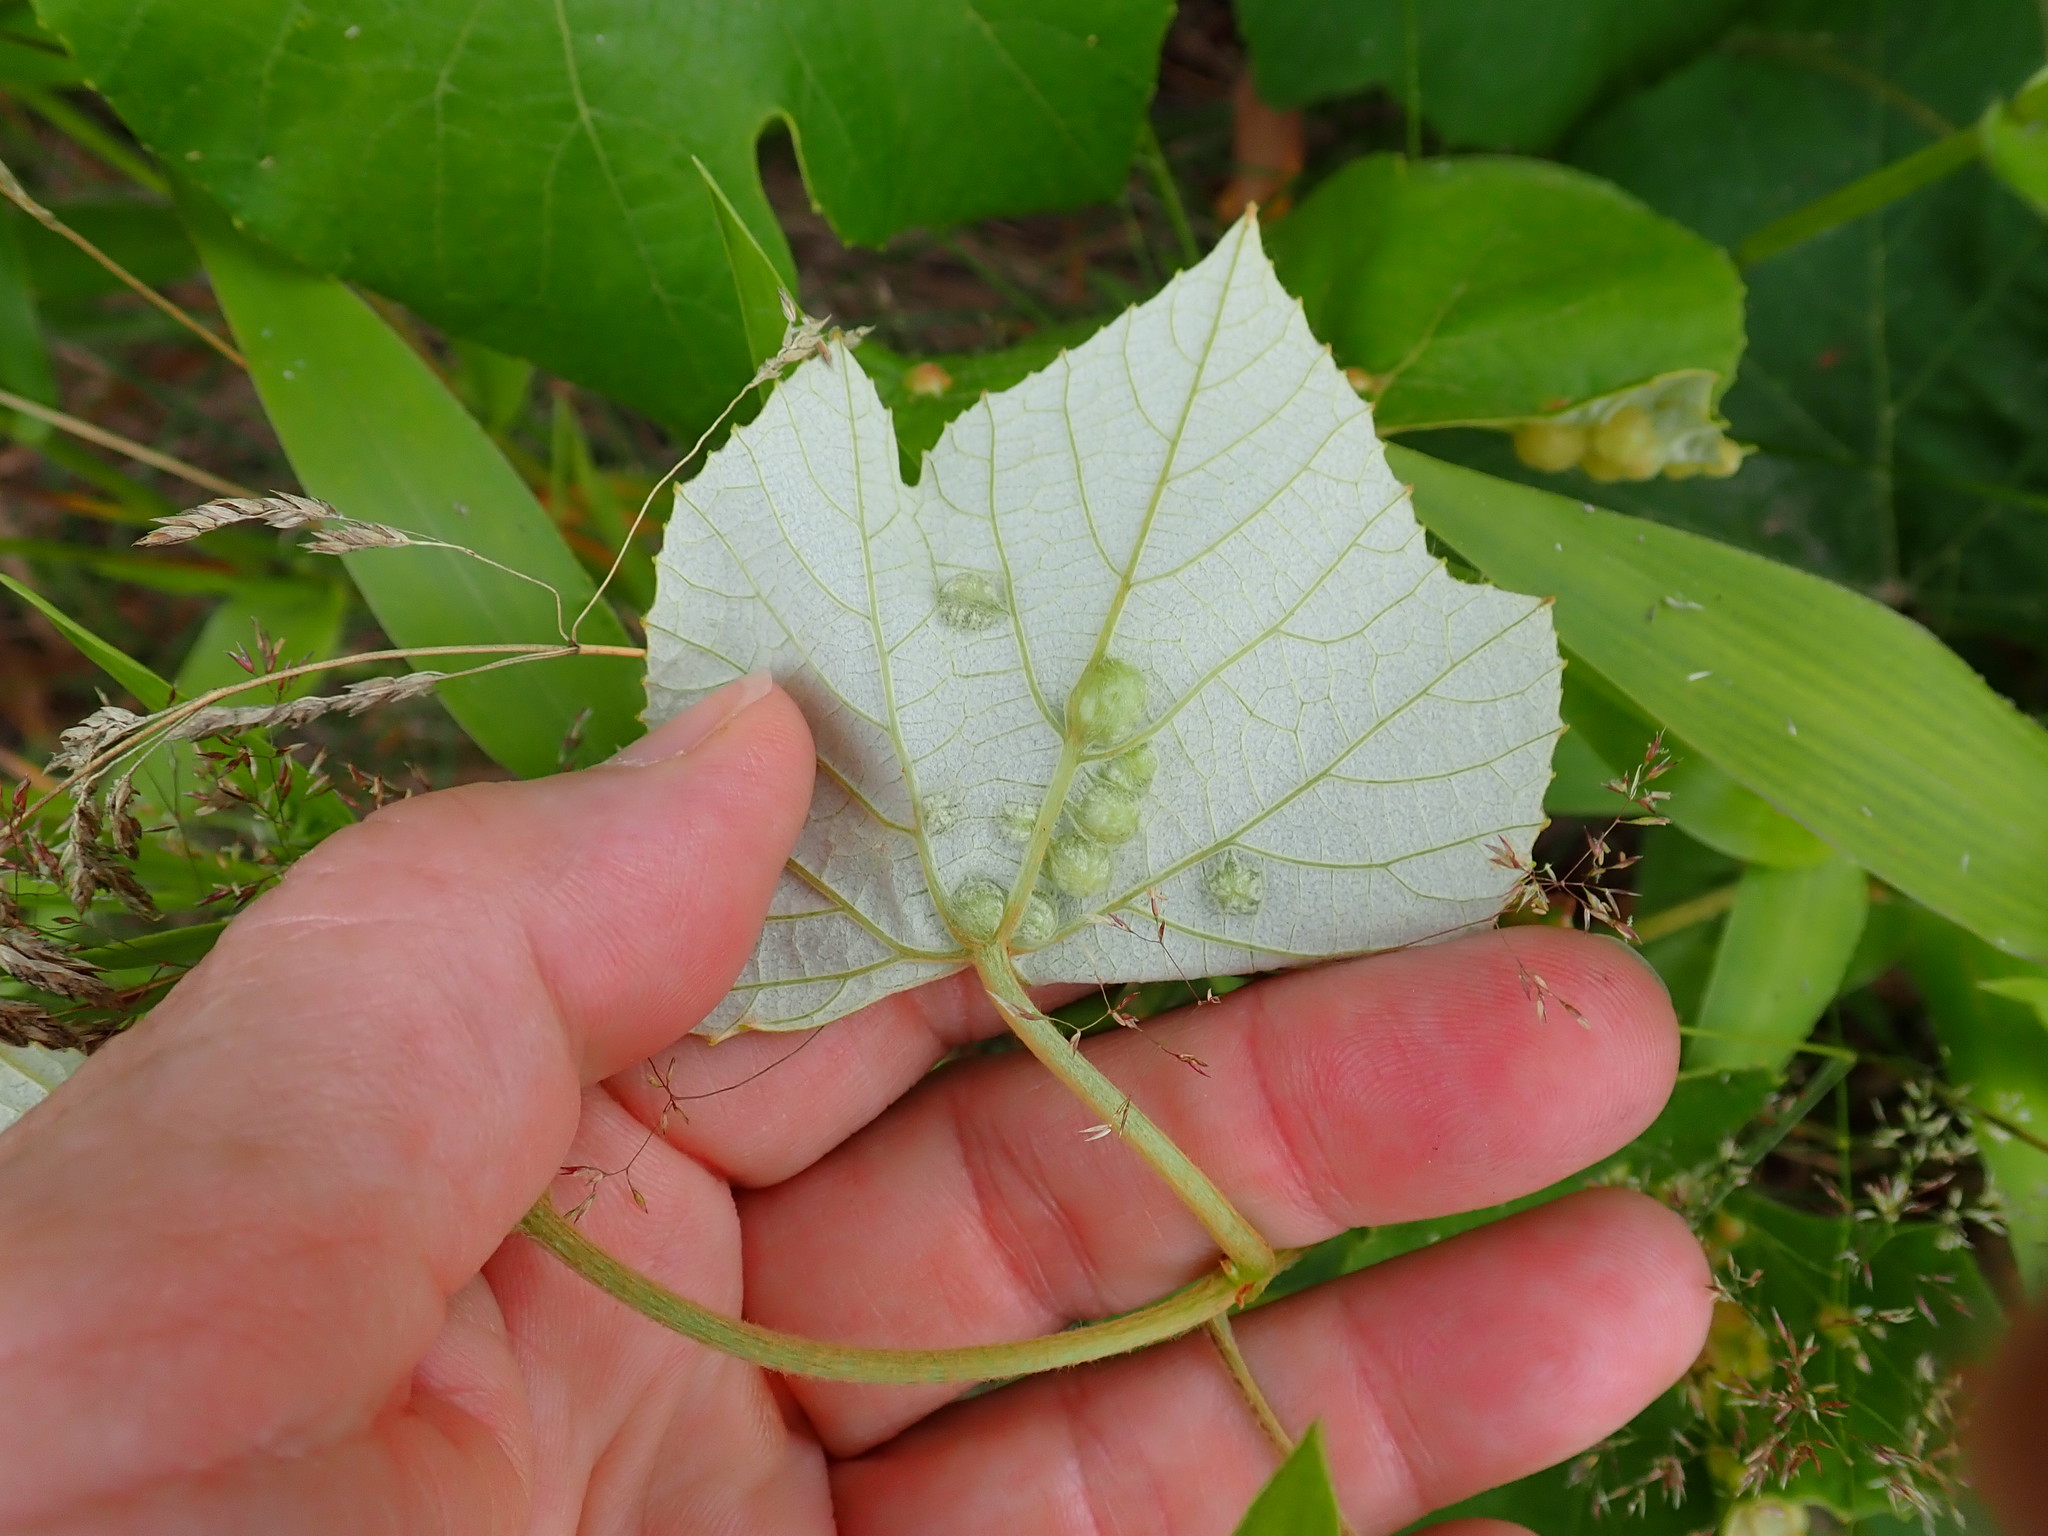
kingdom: Animalia
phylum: Arthropoda
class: Insecta
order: Diptera
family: Cecidomyiidae
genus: Vitisiella
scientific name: Vitisiella brevicauda
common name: Grape tumid gallmaker midge
